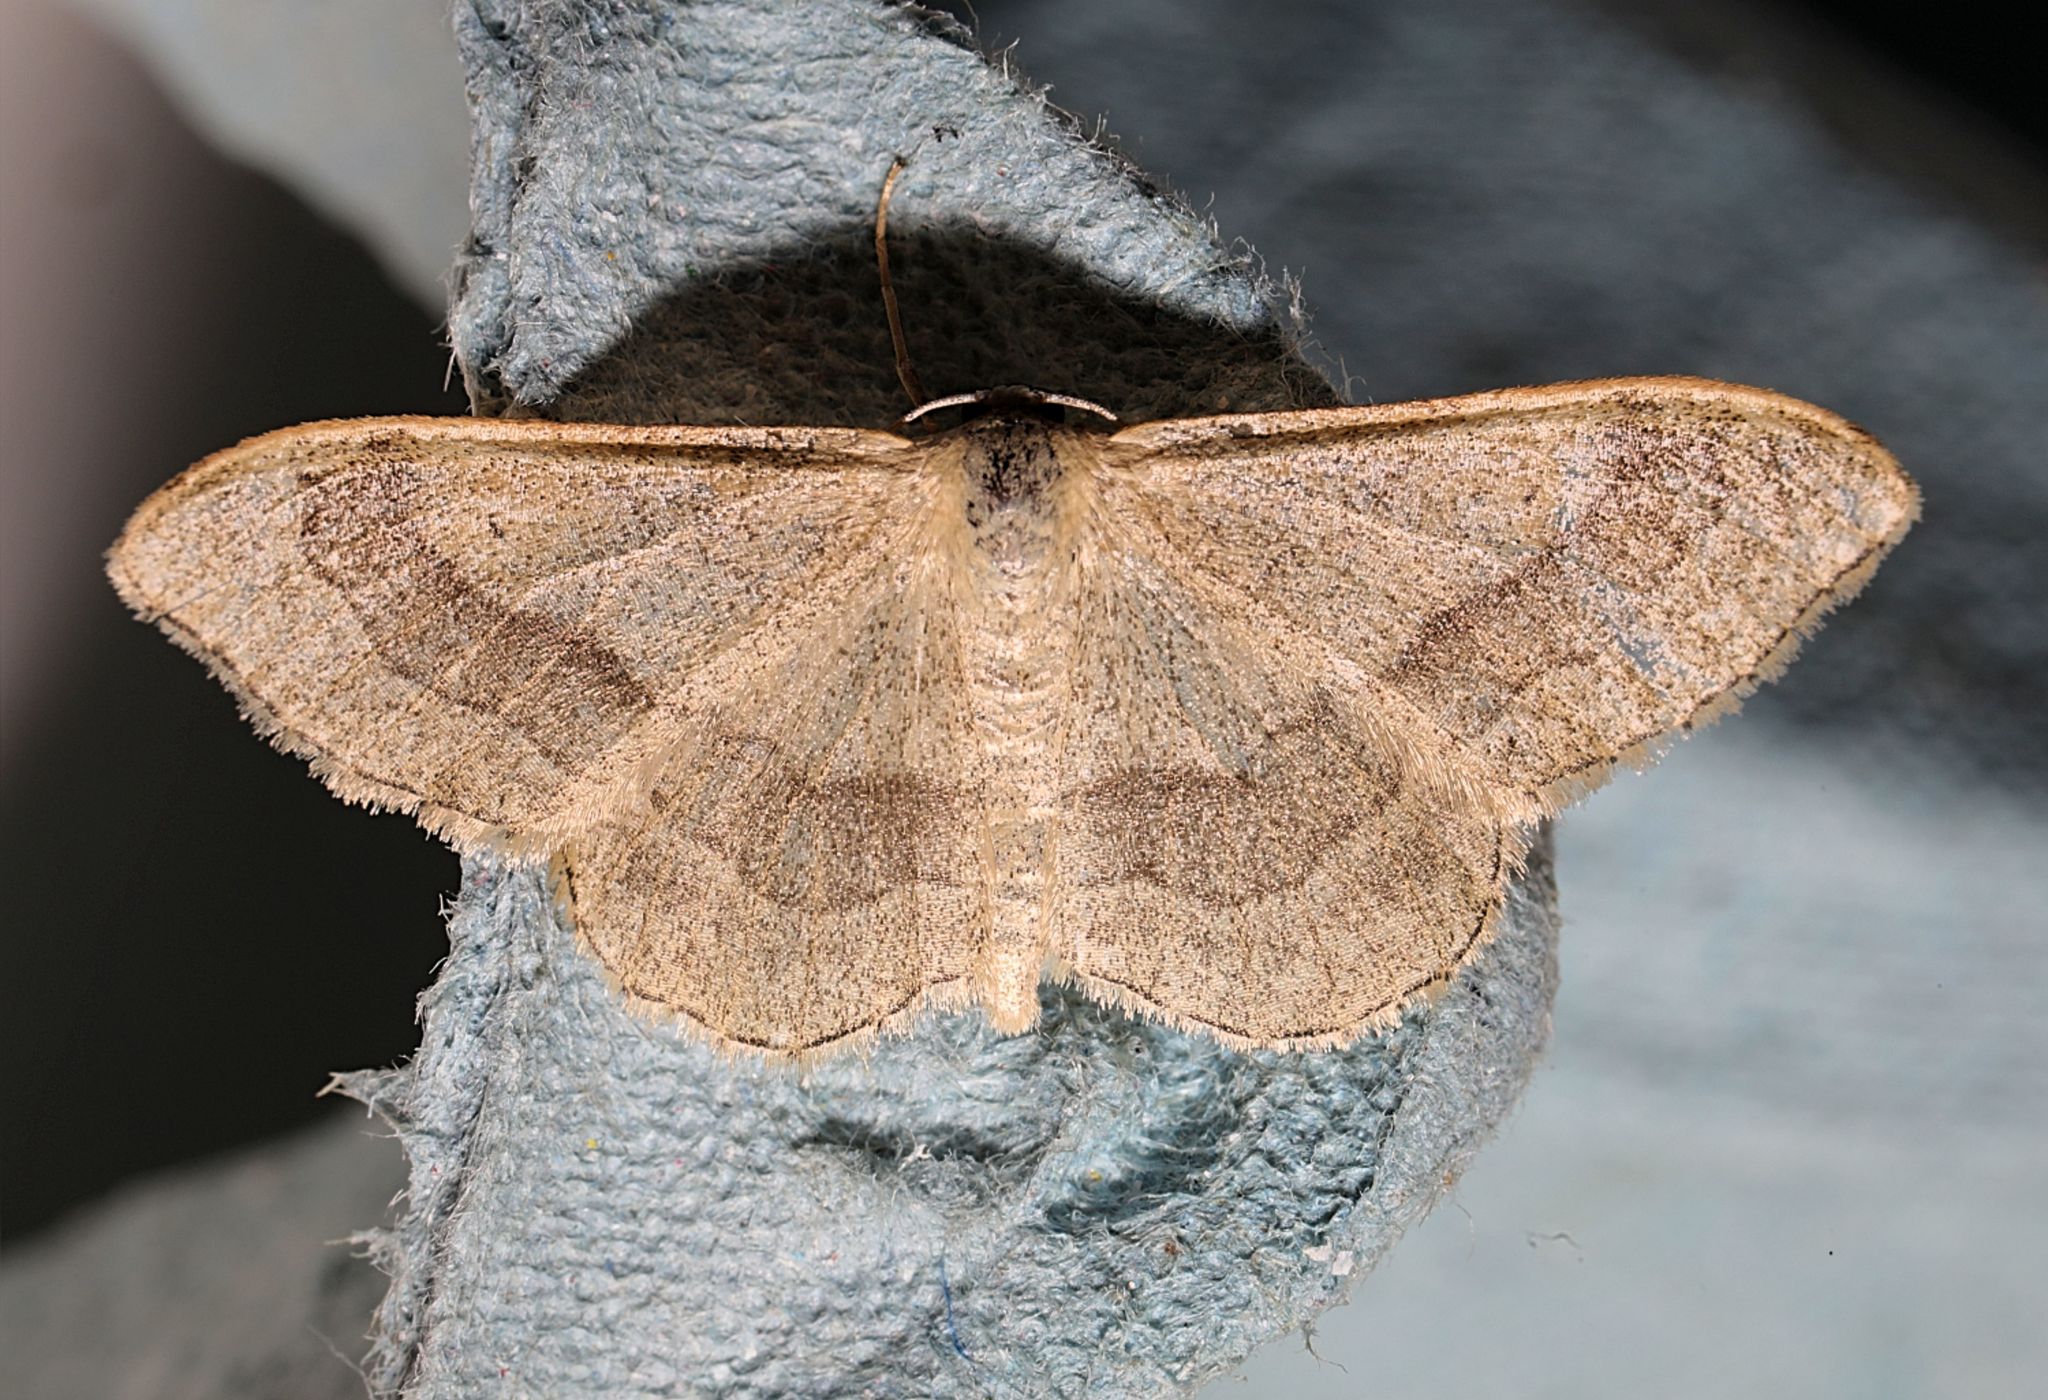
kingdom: Animalia
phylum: Arthropoda
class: Insecta
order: Lepidoptera
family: Geometridae
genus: Idaea
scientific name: Idaea aversata
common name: Riband wave
